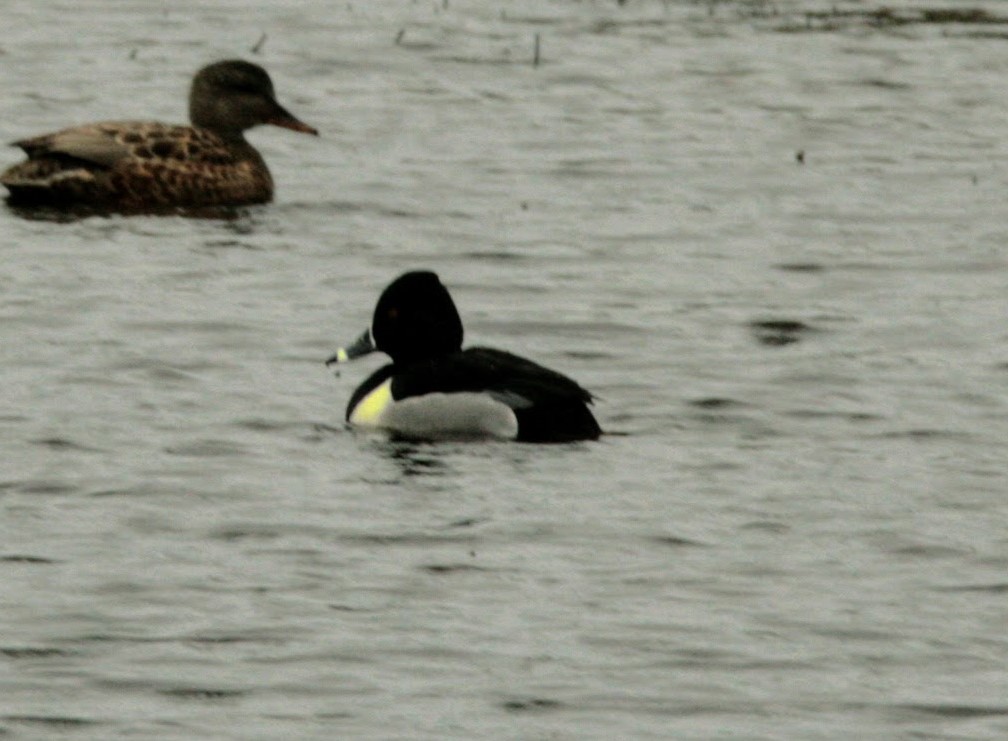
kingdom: Animalia
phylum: Chordata
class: Aves
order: Anseriformes
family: Anatidae
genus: Aythya
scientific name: Aythya collaris
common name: Ring-necked duck
